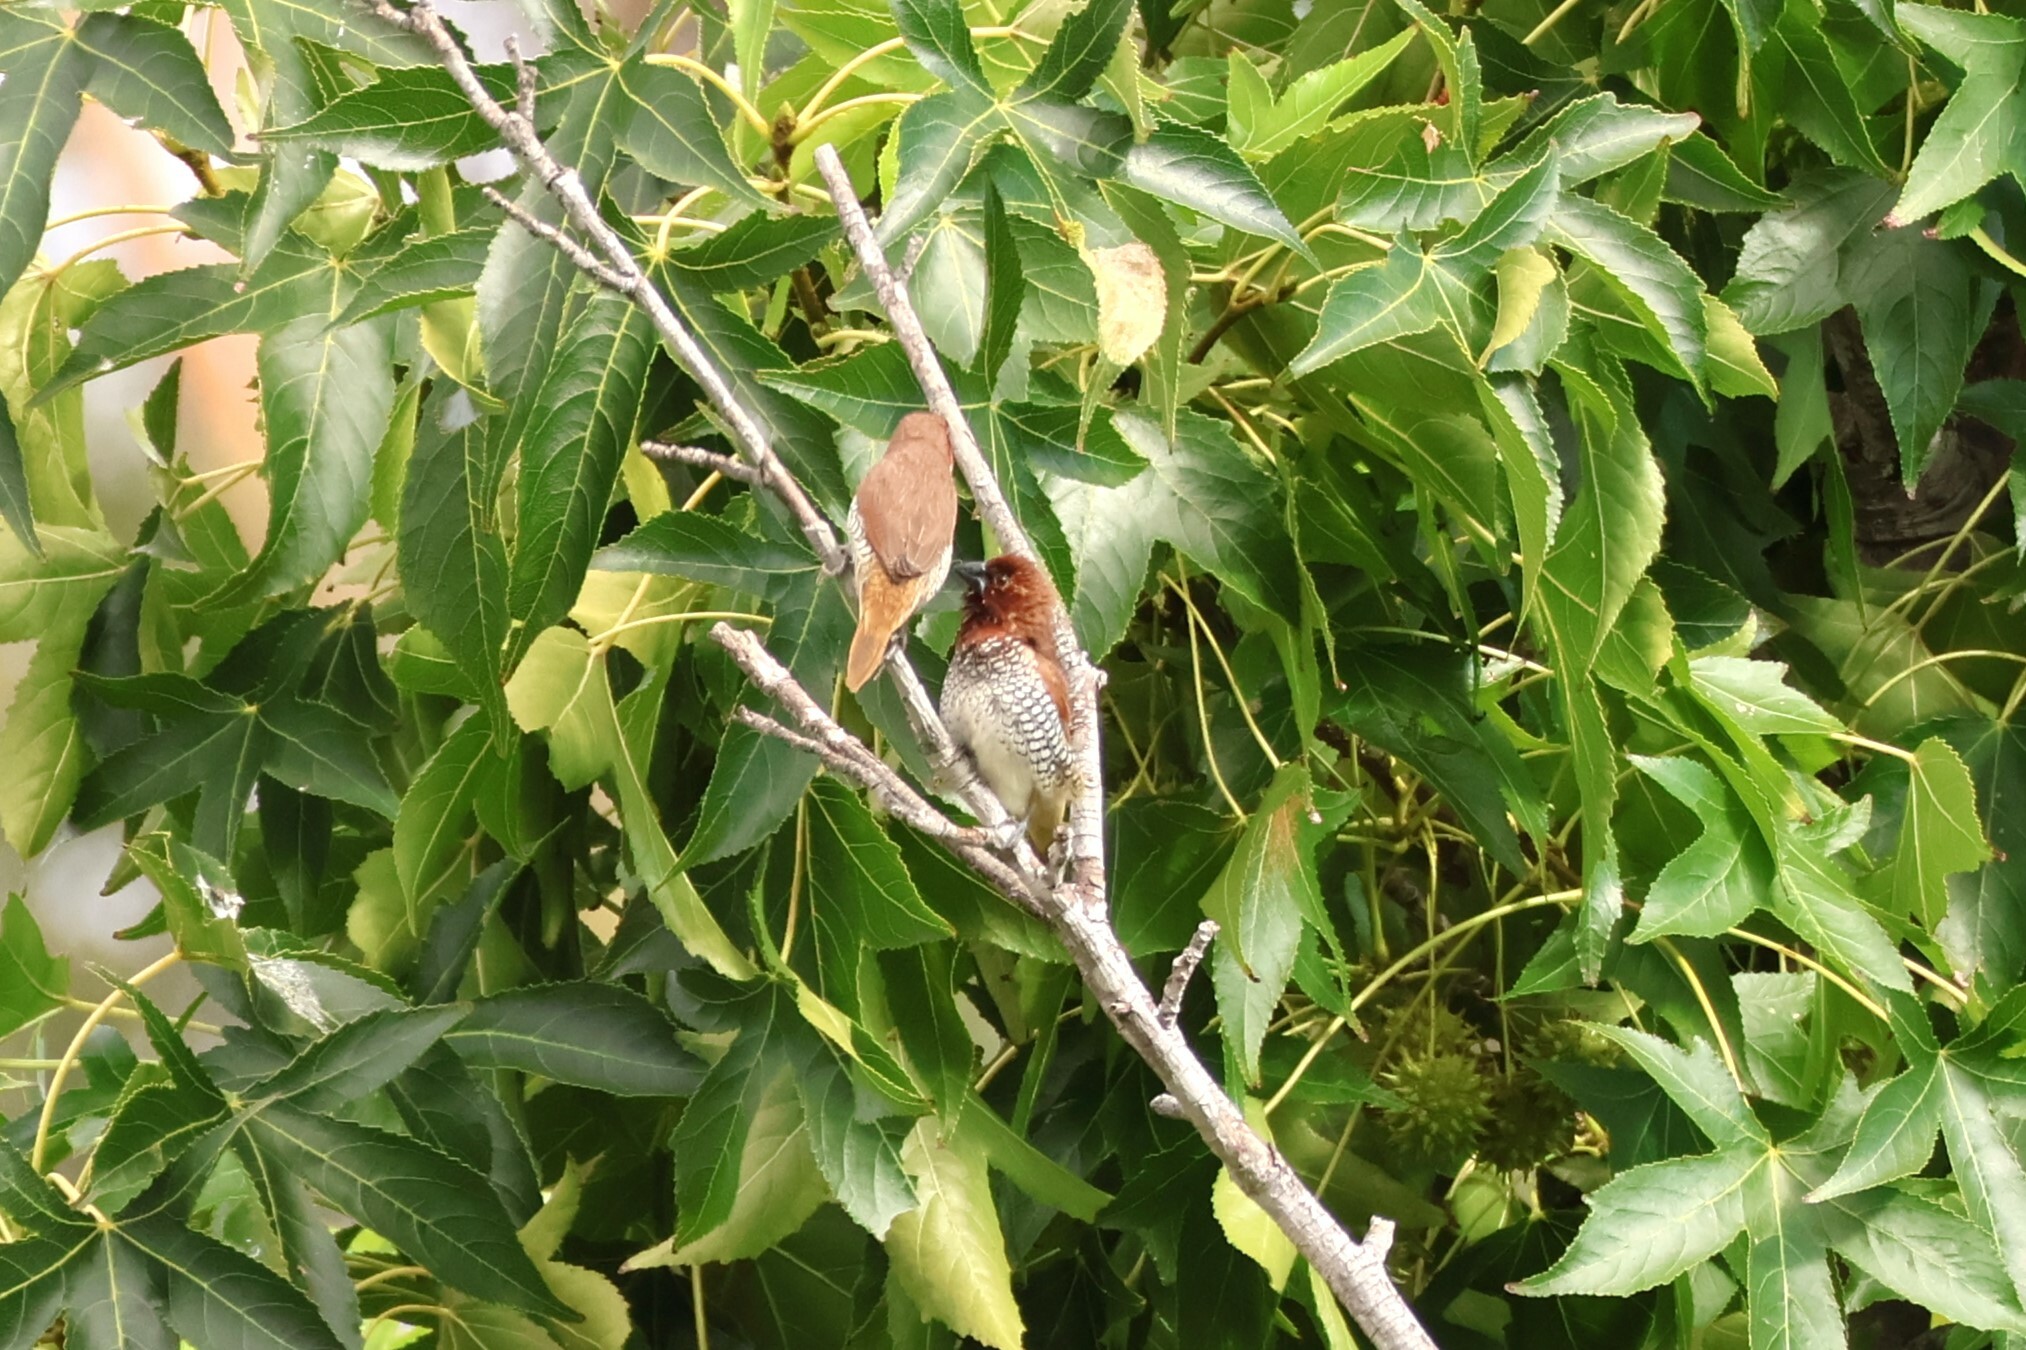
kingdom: Animalia
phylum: Chordata
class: Aves
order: Passeriformes
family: Estrildidae
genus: Lonchura
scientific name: Lonchura punctulata
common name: Scaly-breasted munia
